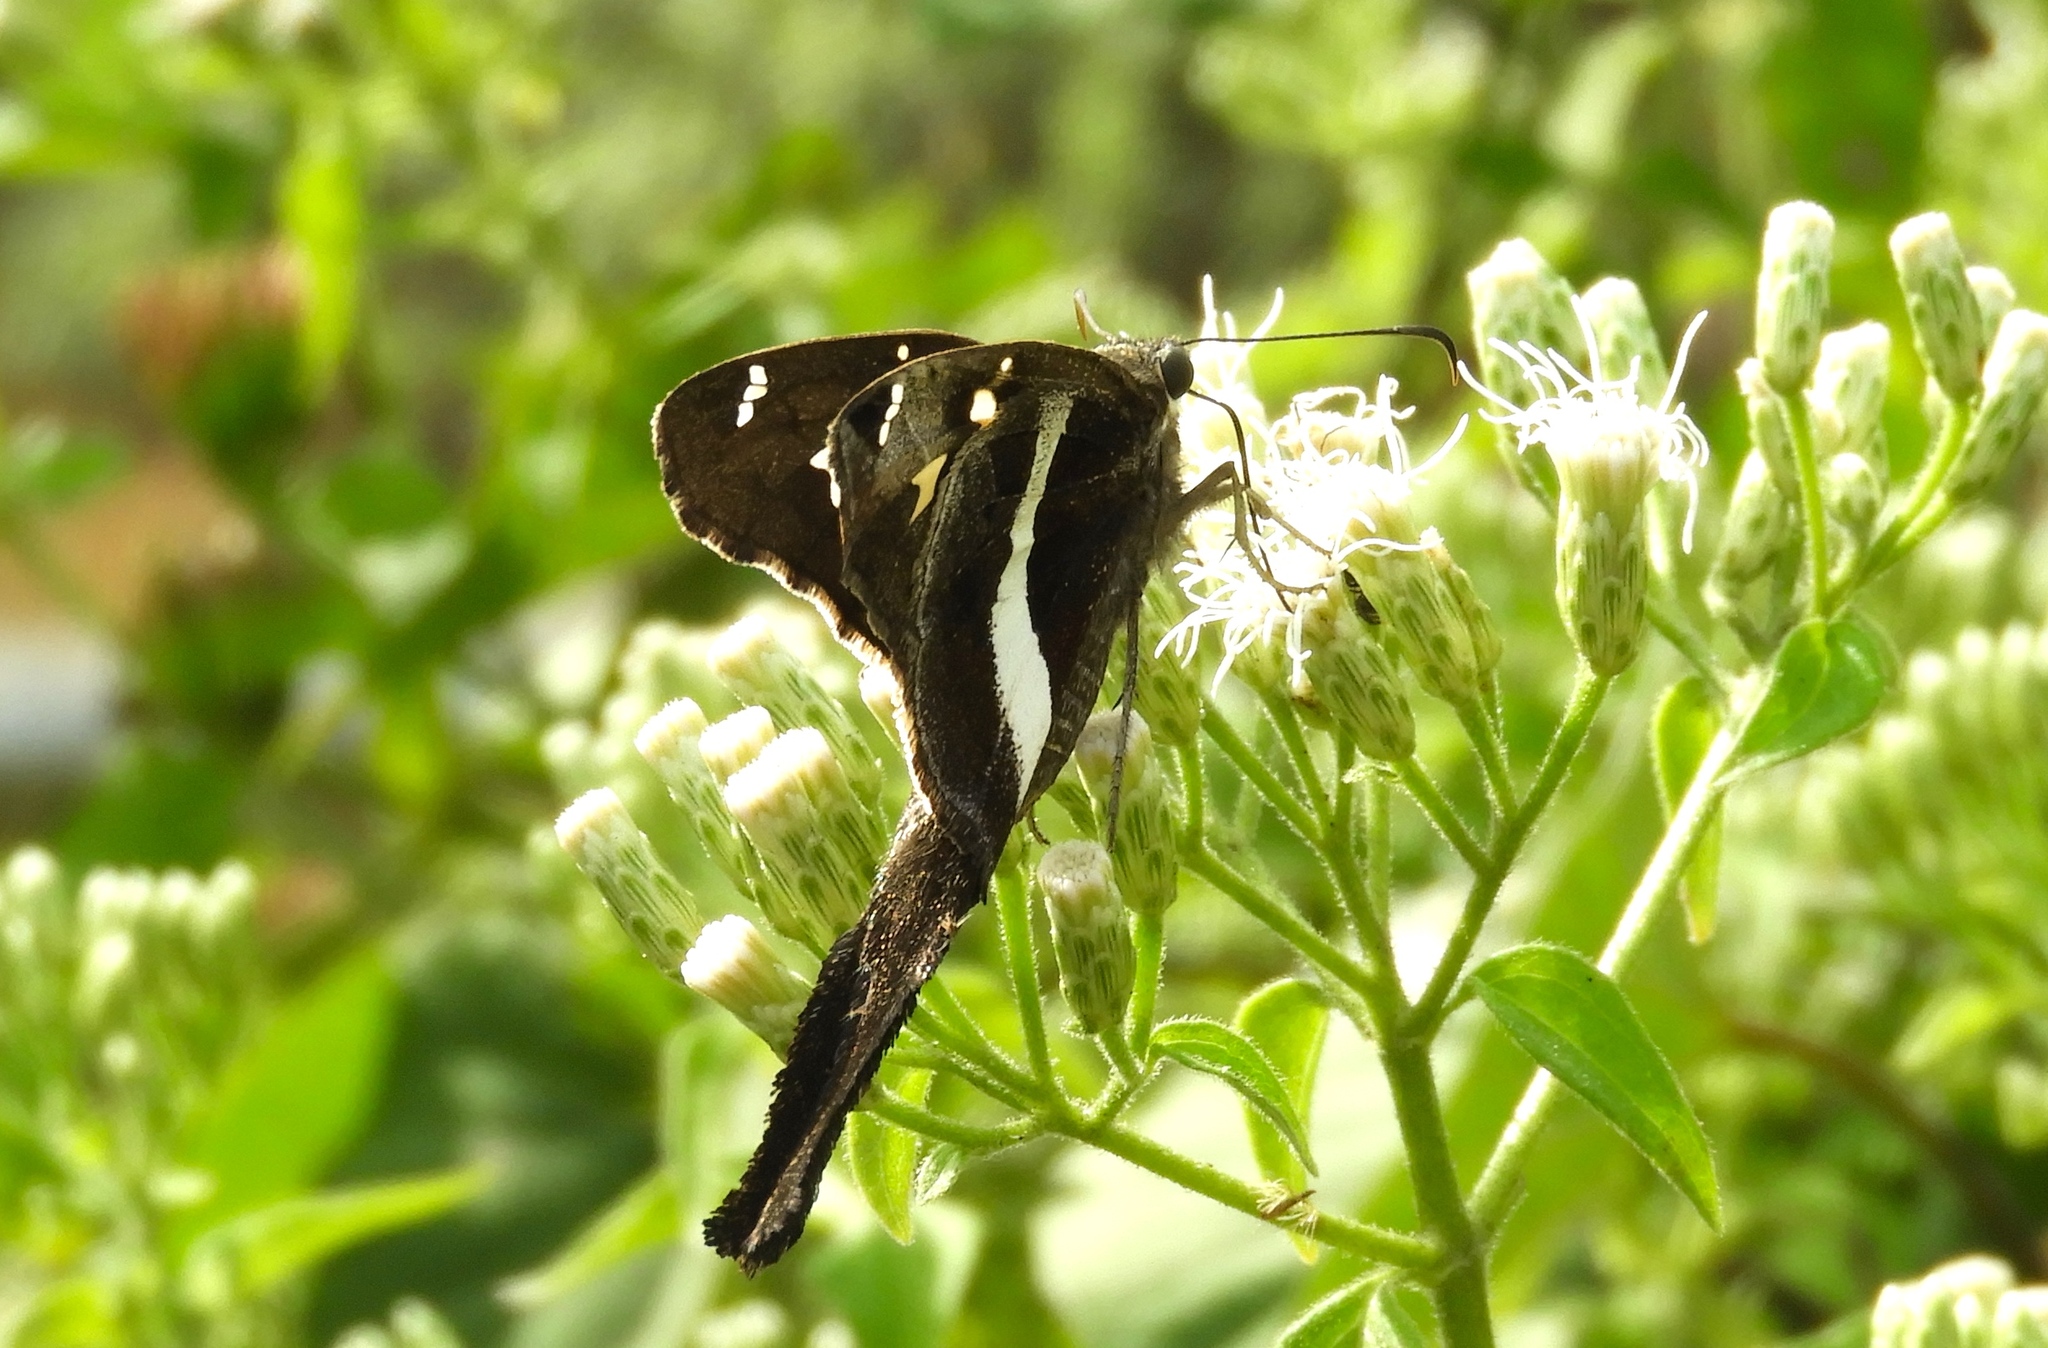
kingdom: Animalia
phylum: Arthropoda
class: Insecta
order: Lepidoptera
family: Hesperiidae
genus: Chioides
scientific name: Chioides catillus
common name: Silverbanded skipper
